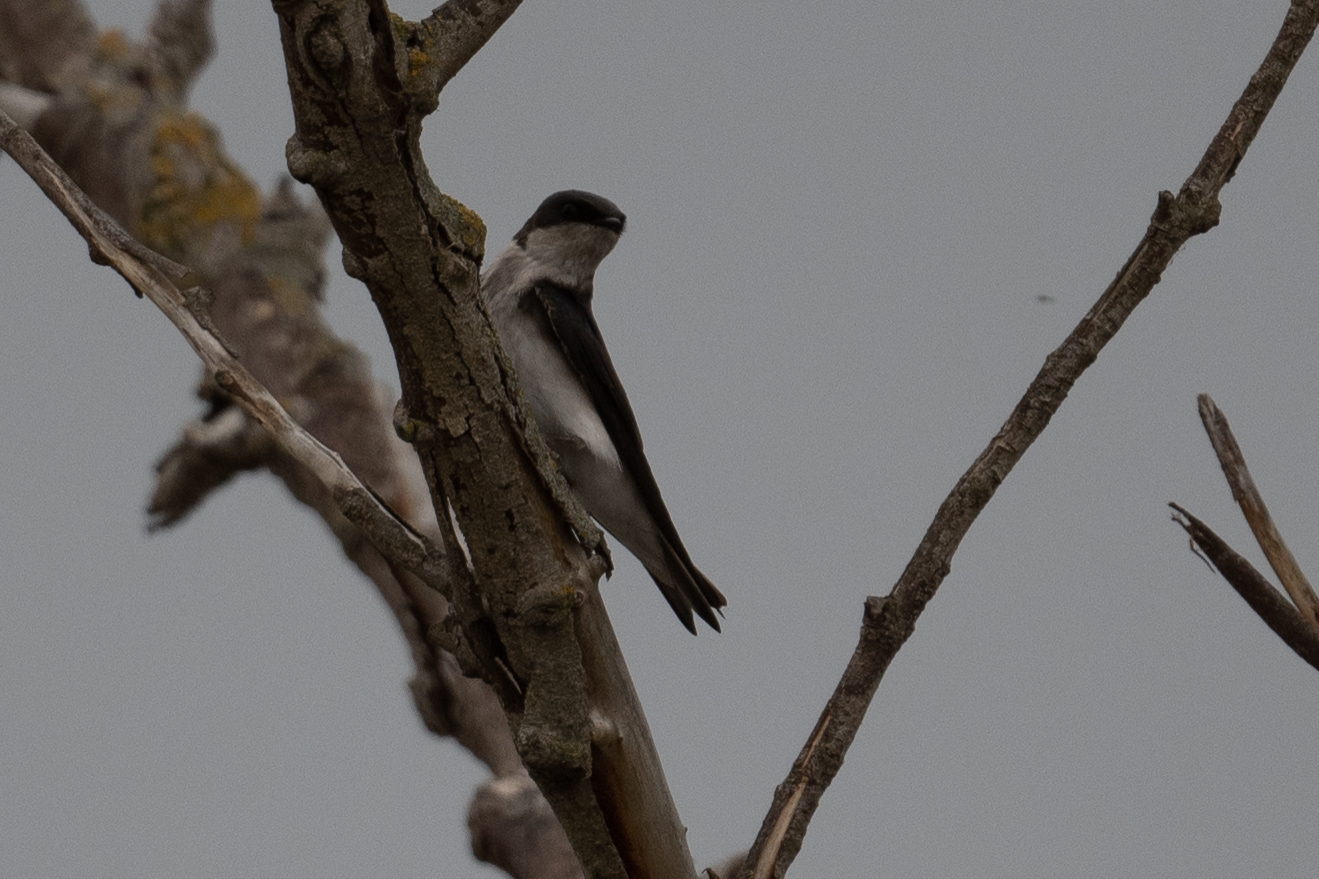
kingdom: Animalia
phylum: Chordata
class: Aves
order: Passeriformes
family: Hirundinidae
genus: Tachycineta
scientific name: Tachycineta bicolor
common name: Tree swallow
